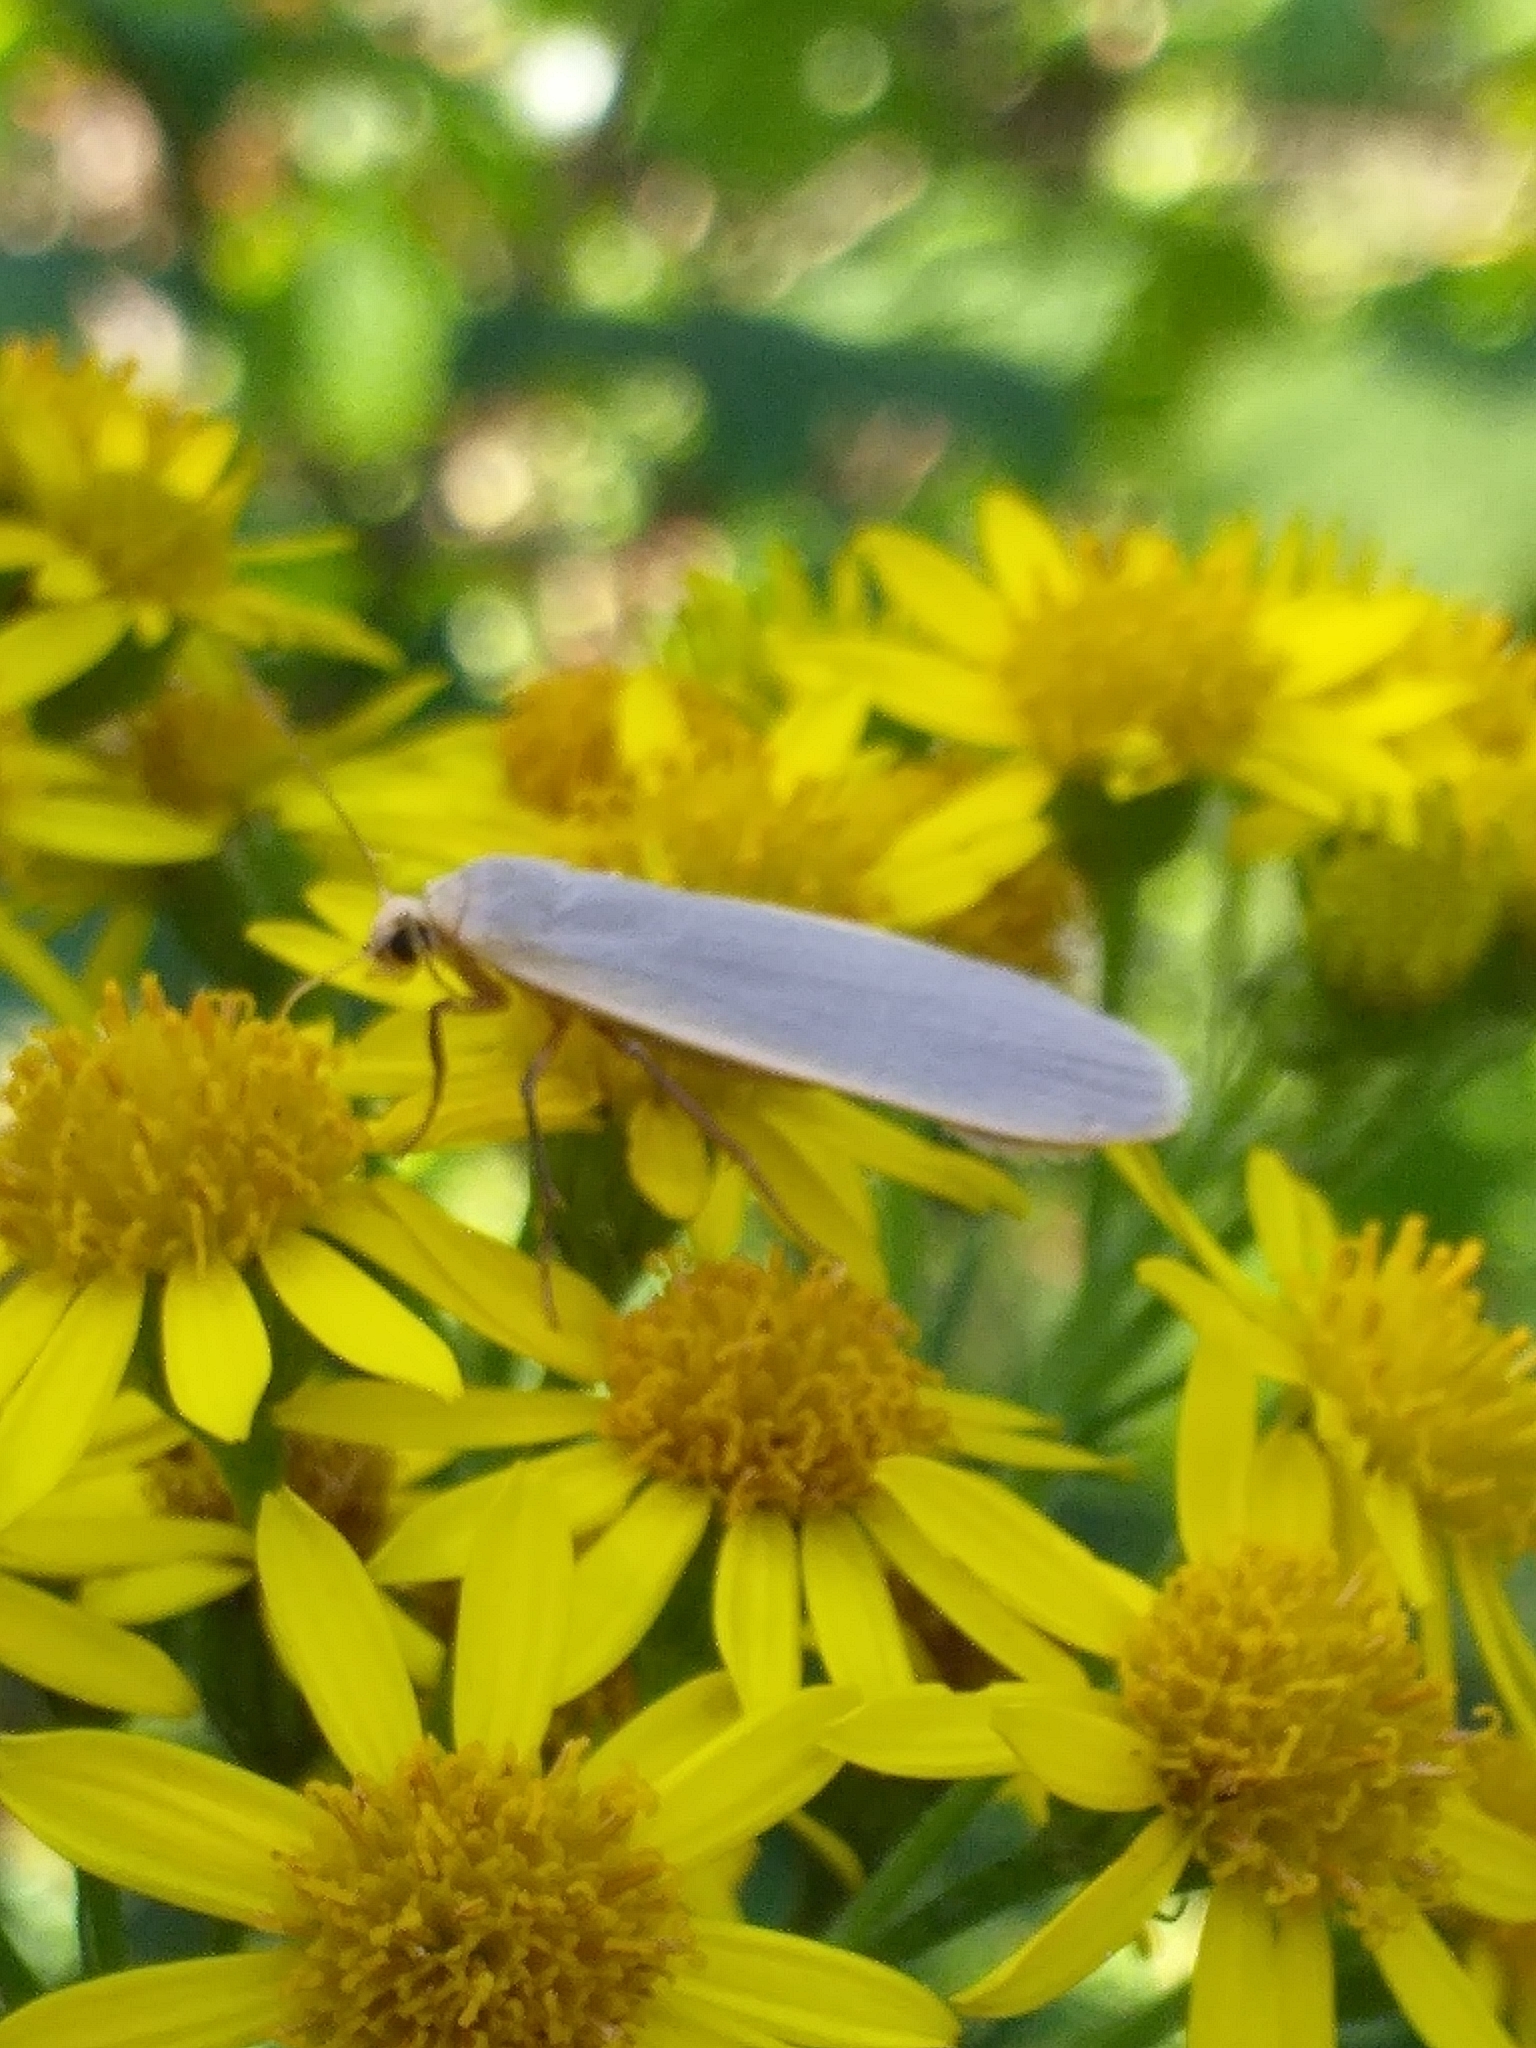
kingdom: Animalia
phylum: Arthropoda
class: Insecta
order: Lepidoptera
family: Erebidae
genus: Nyea
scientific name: Nyea lurideola
